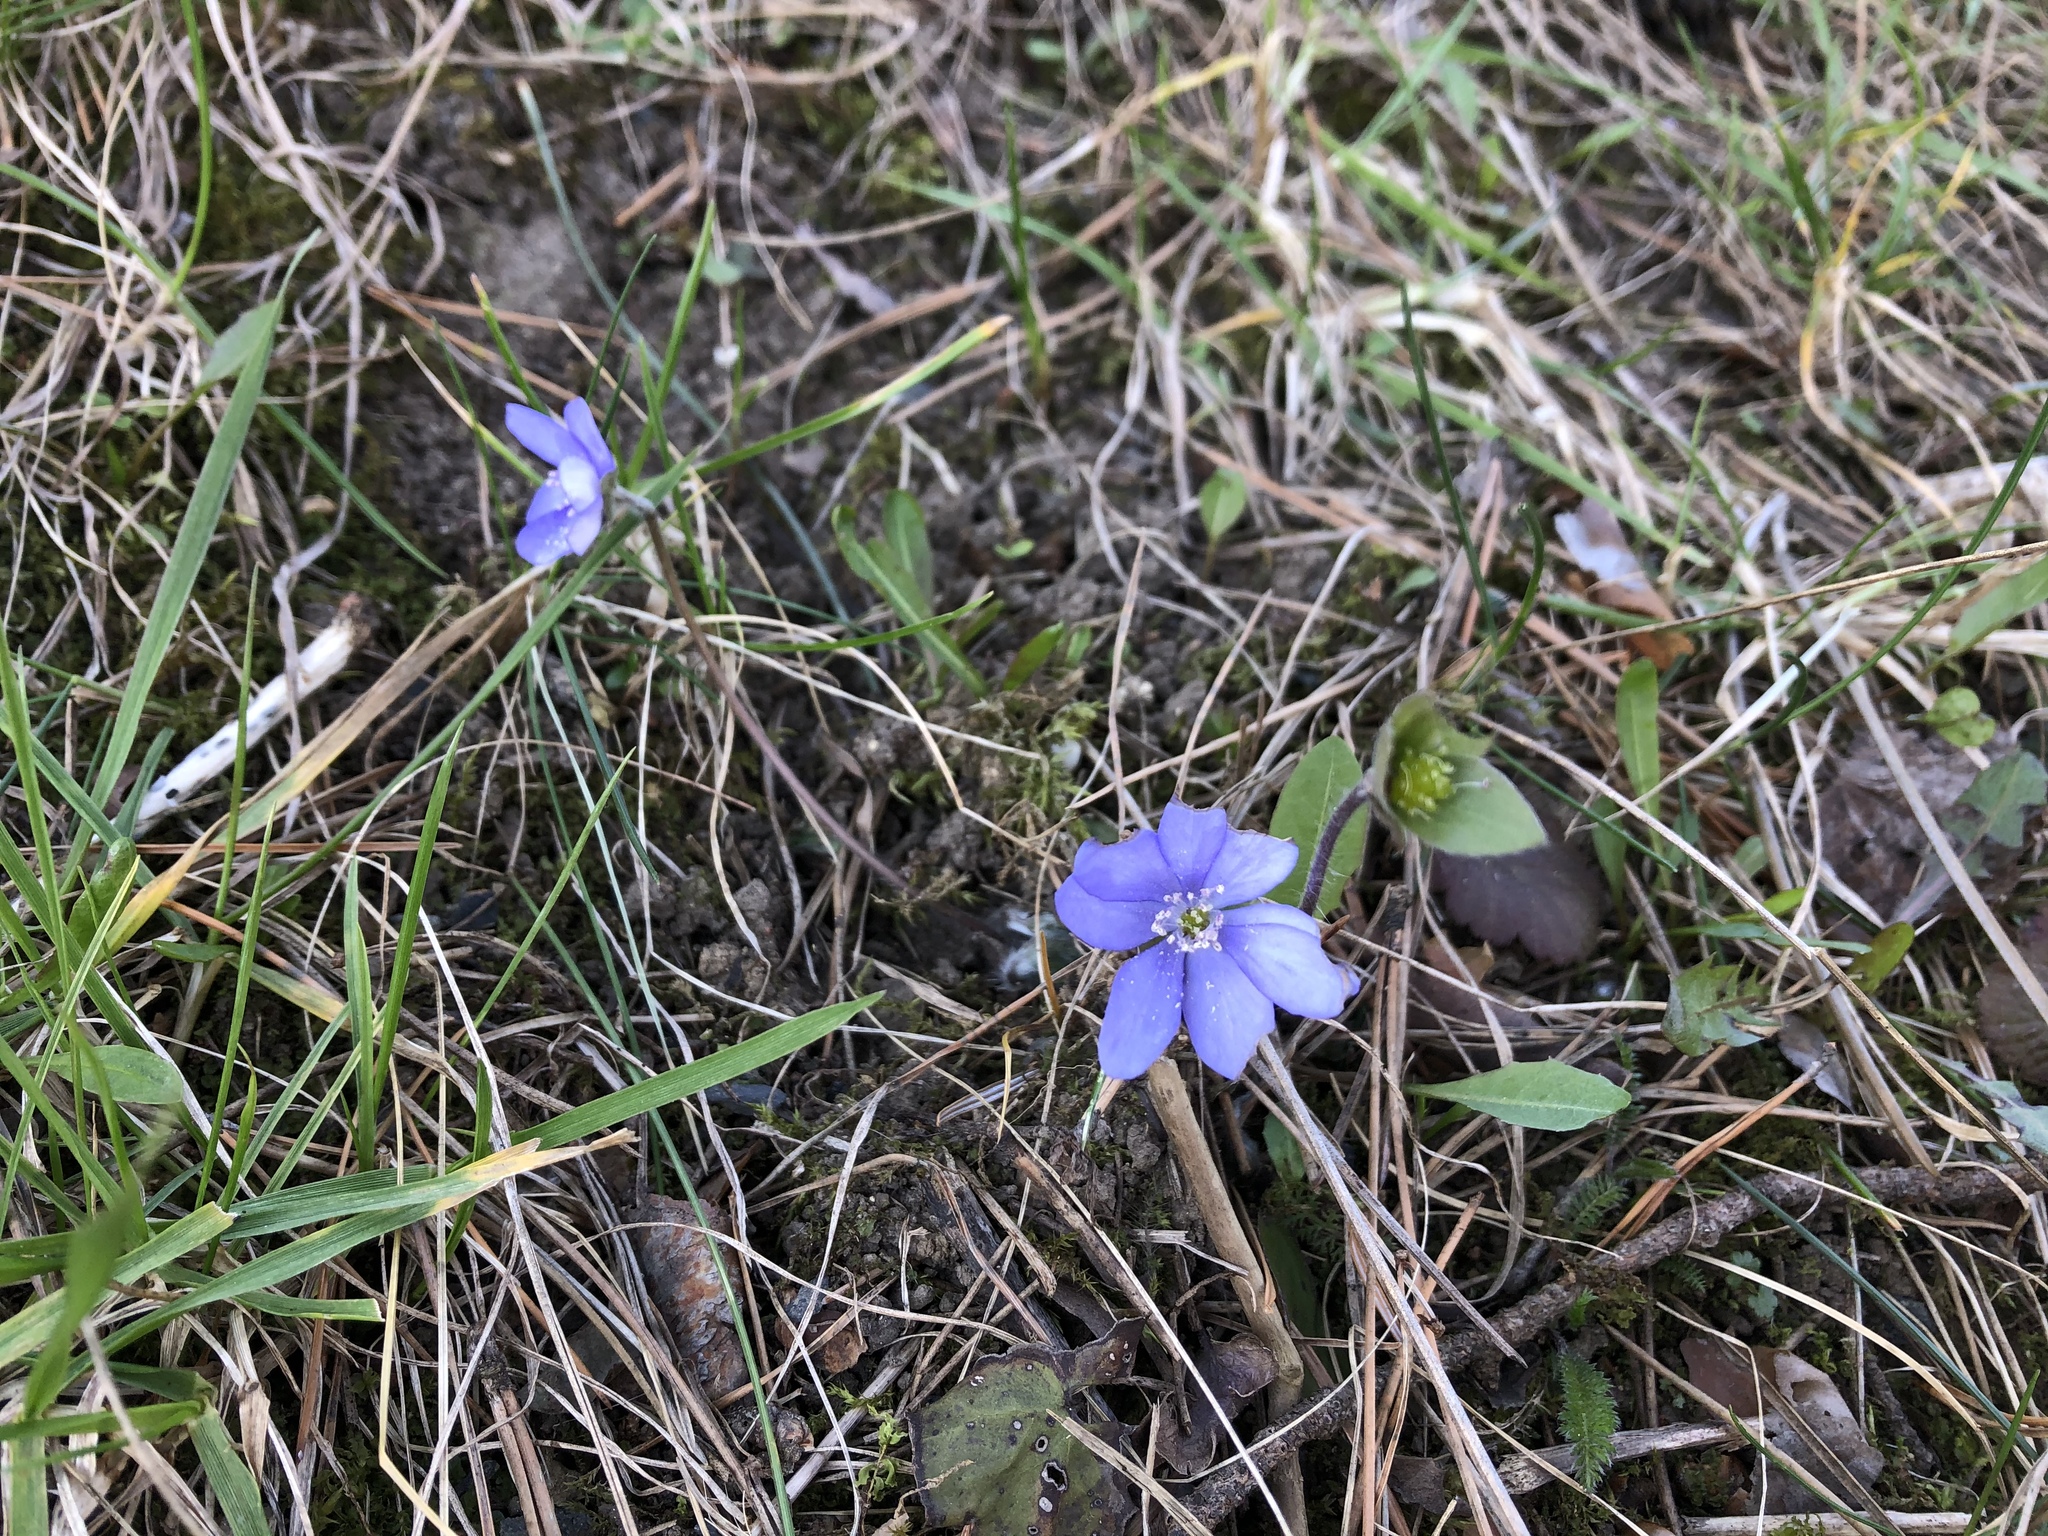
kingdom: Plantae
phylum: Tracheophyta
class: Magnoliopsida
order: Ranunculales
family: Ranunculaceae
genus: Hepatica
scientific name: Hepatica nobilis
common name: Liverleaf
